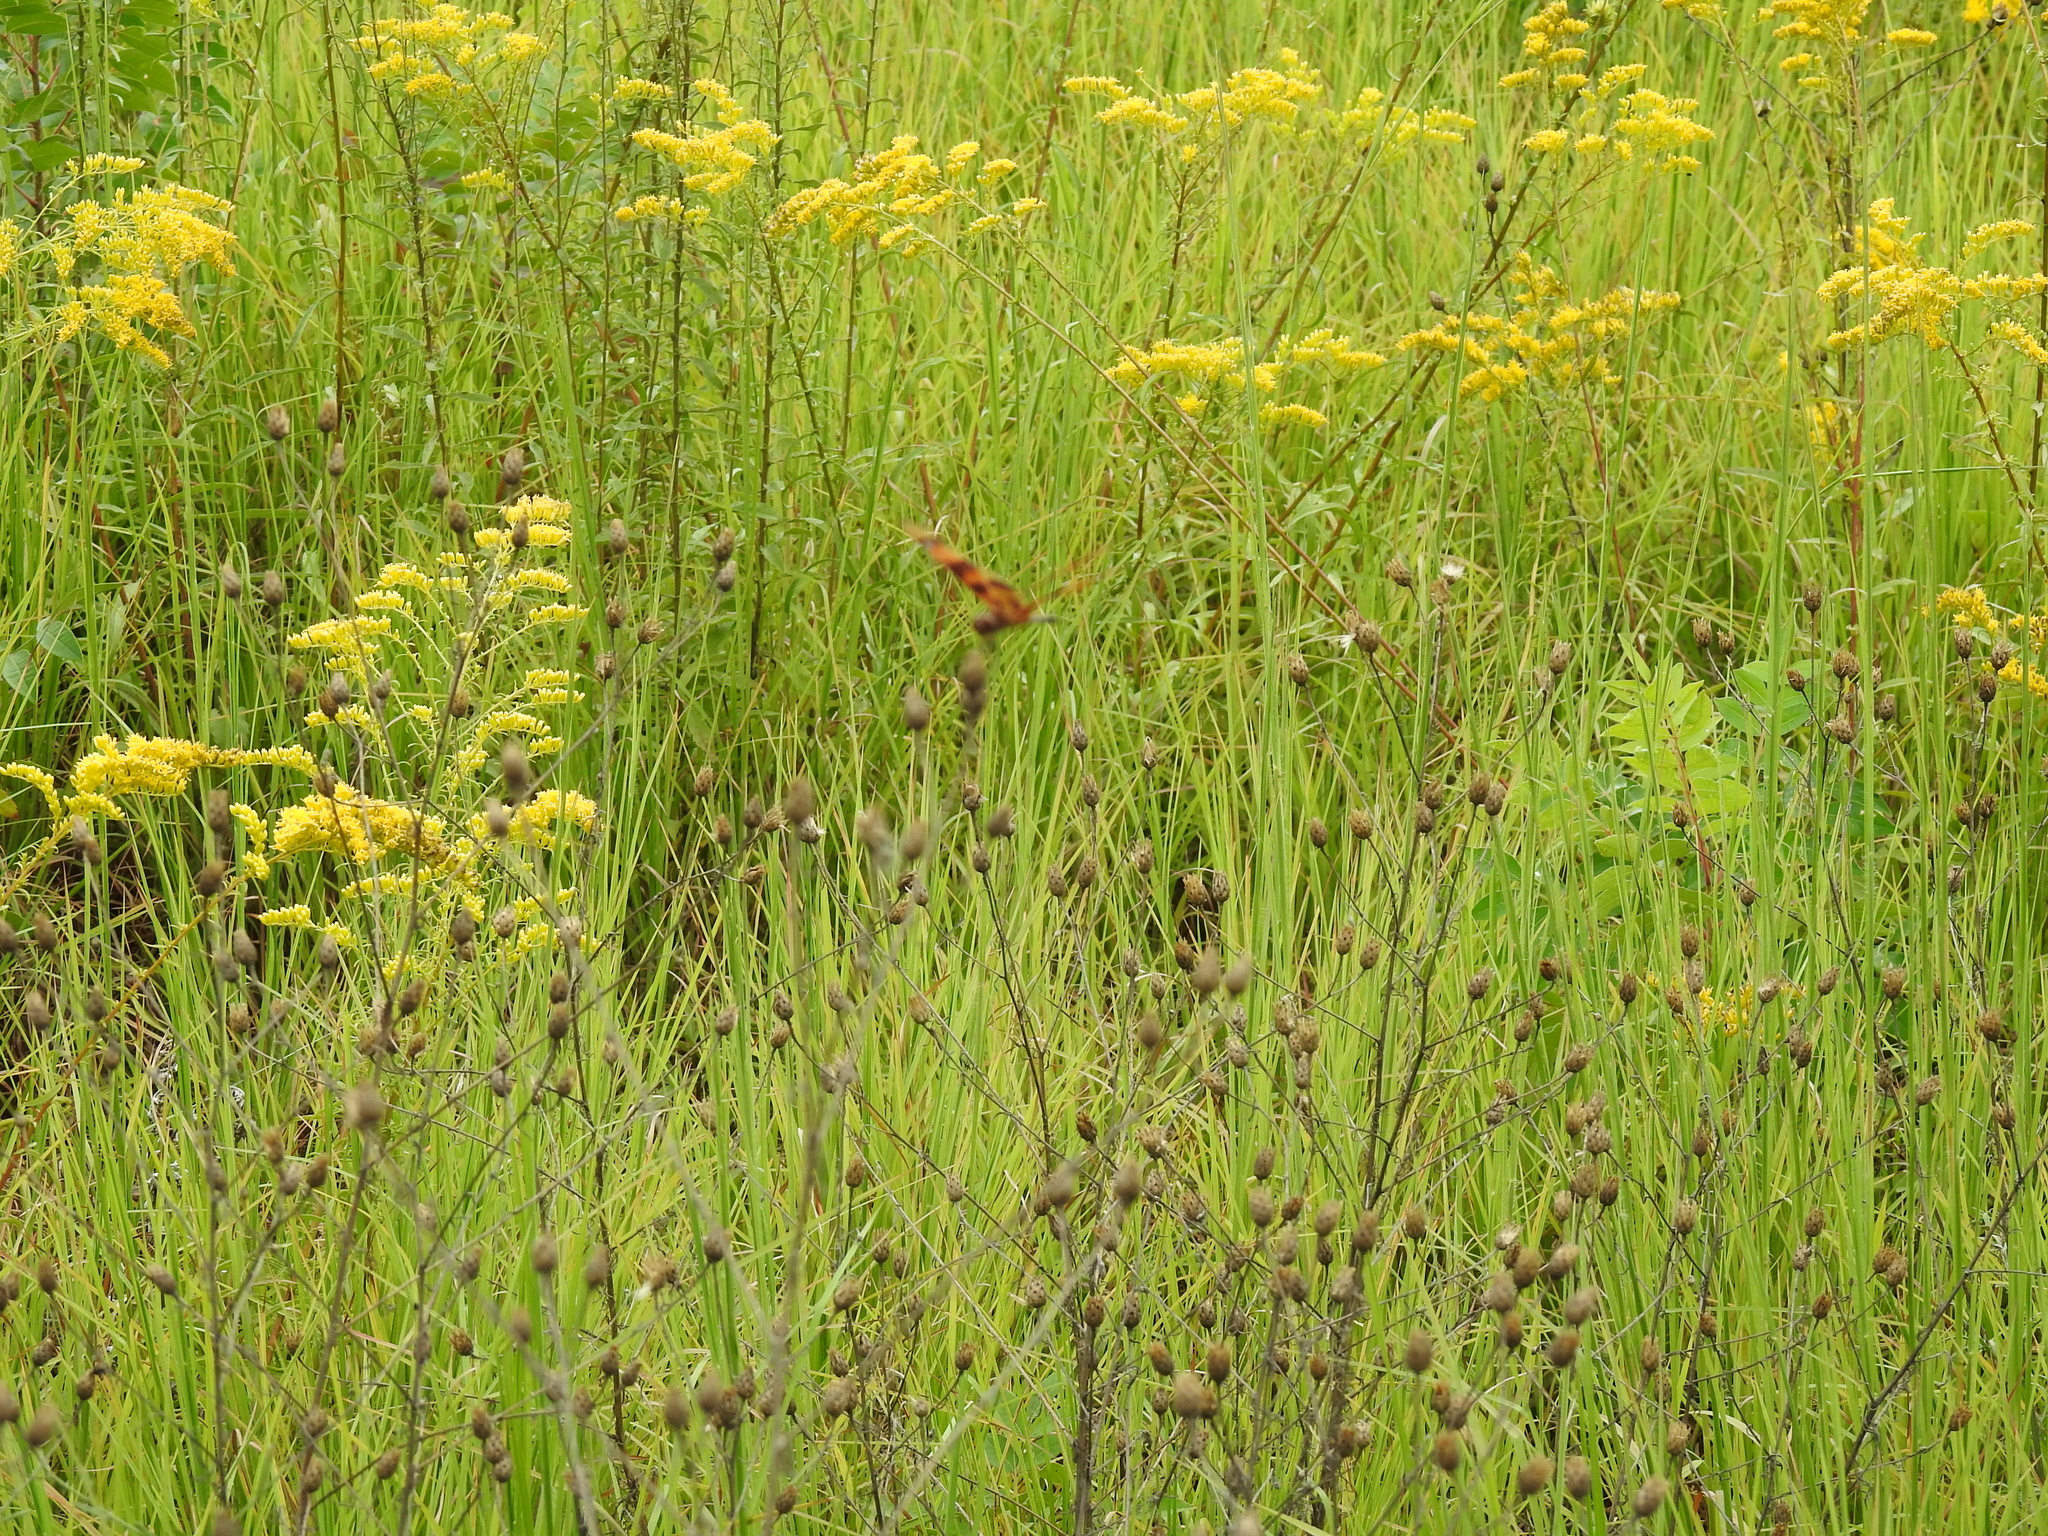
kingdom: Animalia
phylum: Arthropoda
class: Insecta
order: Odonata
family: Libellulidae
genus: Celithemis
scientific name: Celithemis eponina
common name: Halloween pennant
